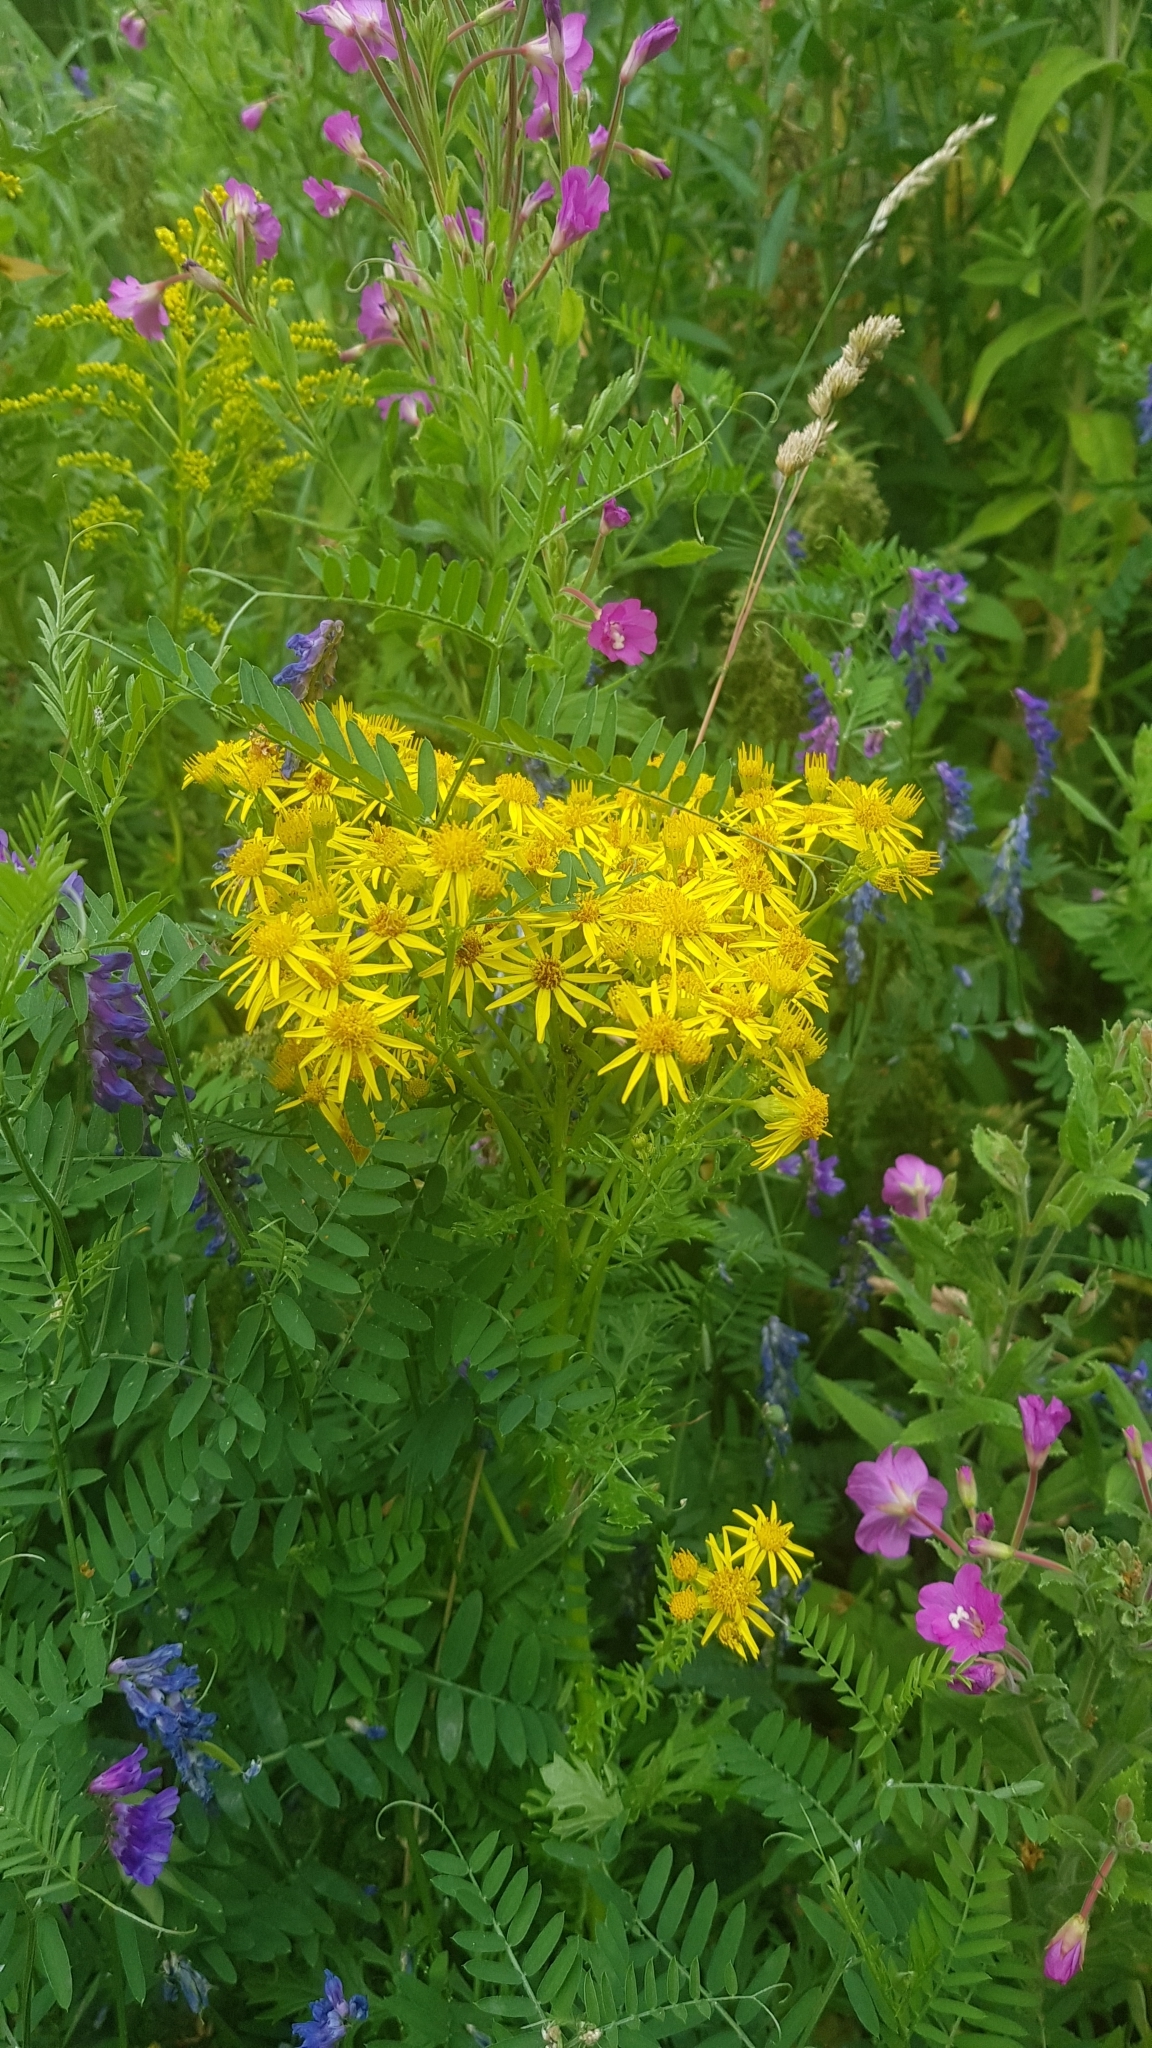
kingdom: Plantae
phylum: Tracheophyta
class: Magnoliopsida
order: Asterales
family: Asteraceae
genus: Jacobaea
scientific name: Jacobaea vulgaris
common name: Stinking willie
